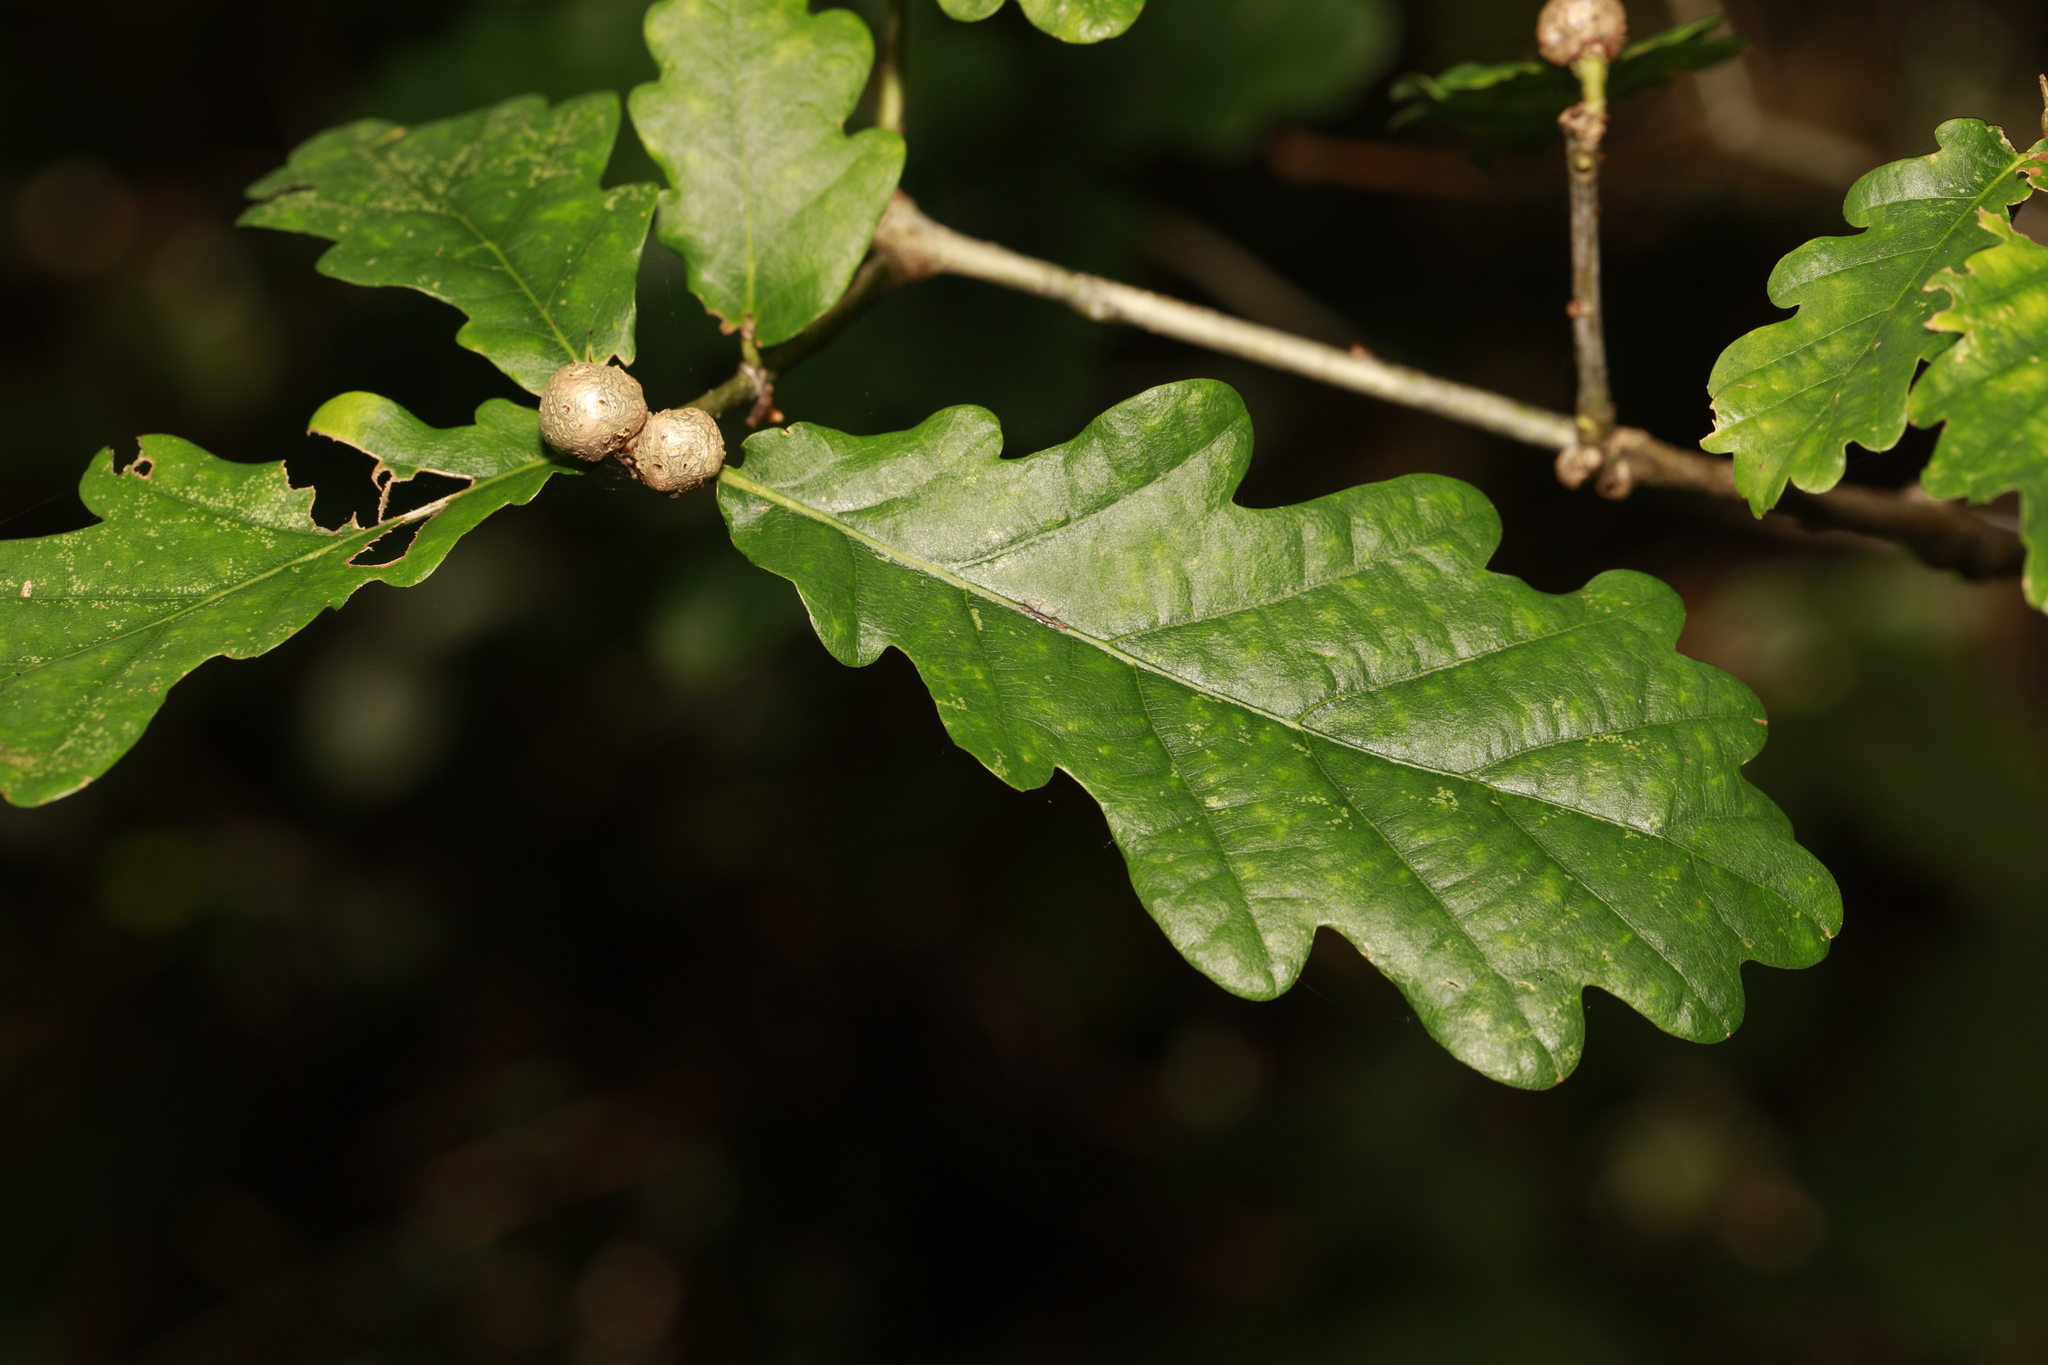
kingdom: Animalia
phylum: Arthropoda
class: Insecta
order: Hymenoptera
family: Cynipidae
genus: Andricus
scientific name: Andricus lignicolus
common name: Cola-nut gall
